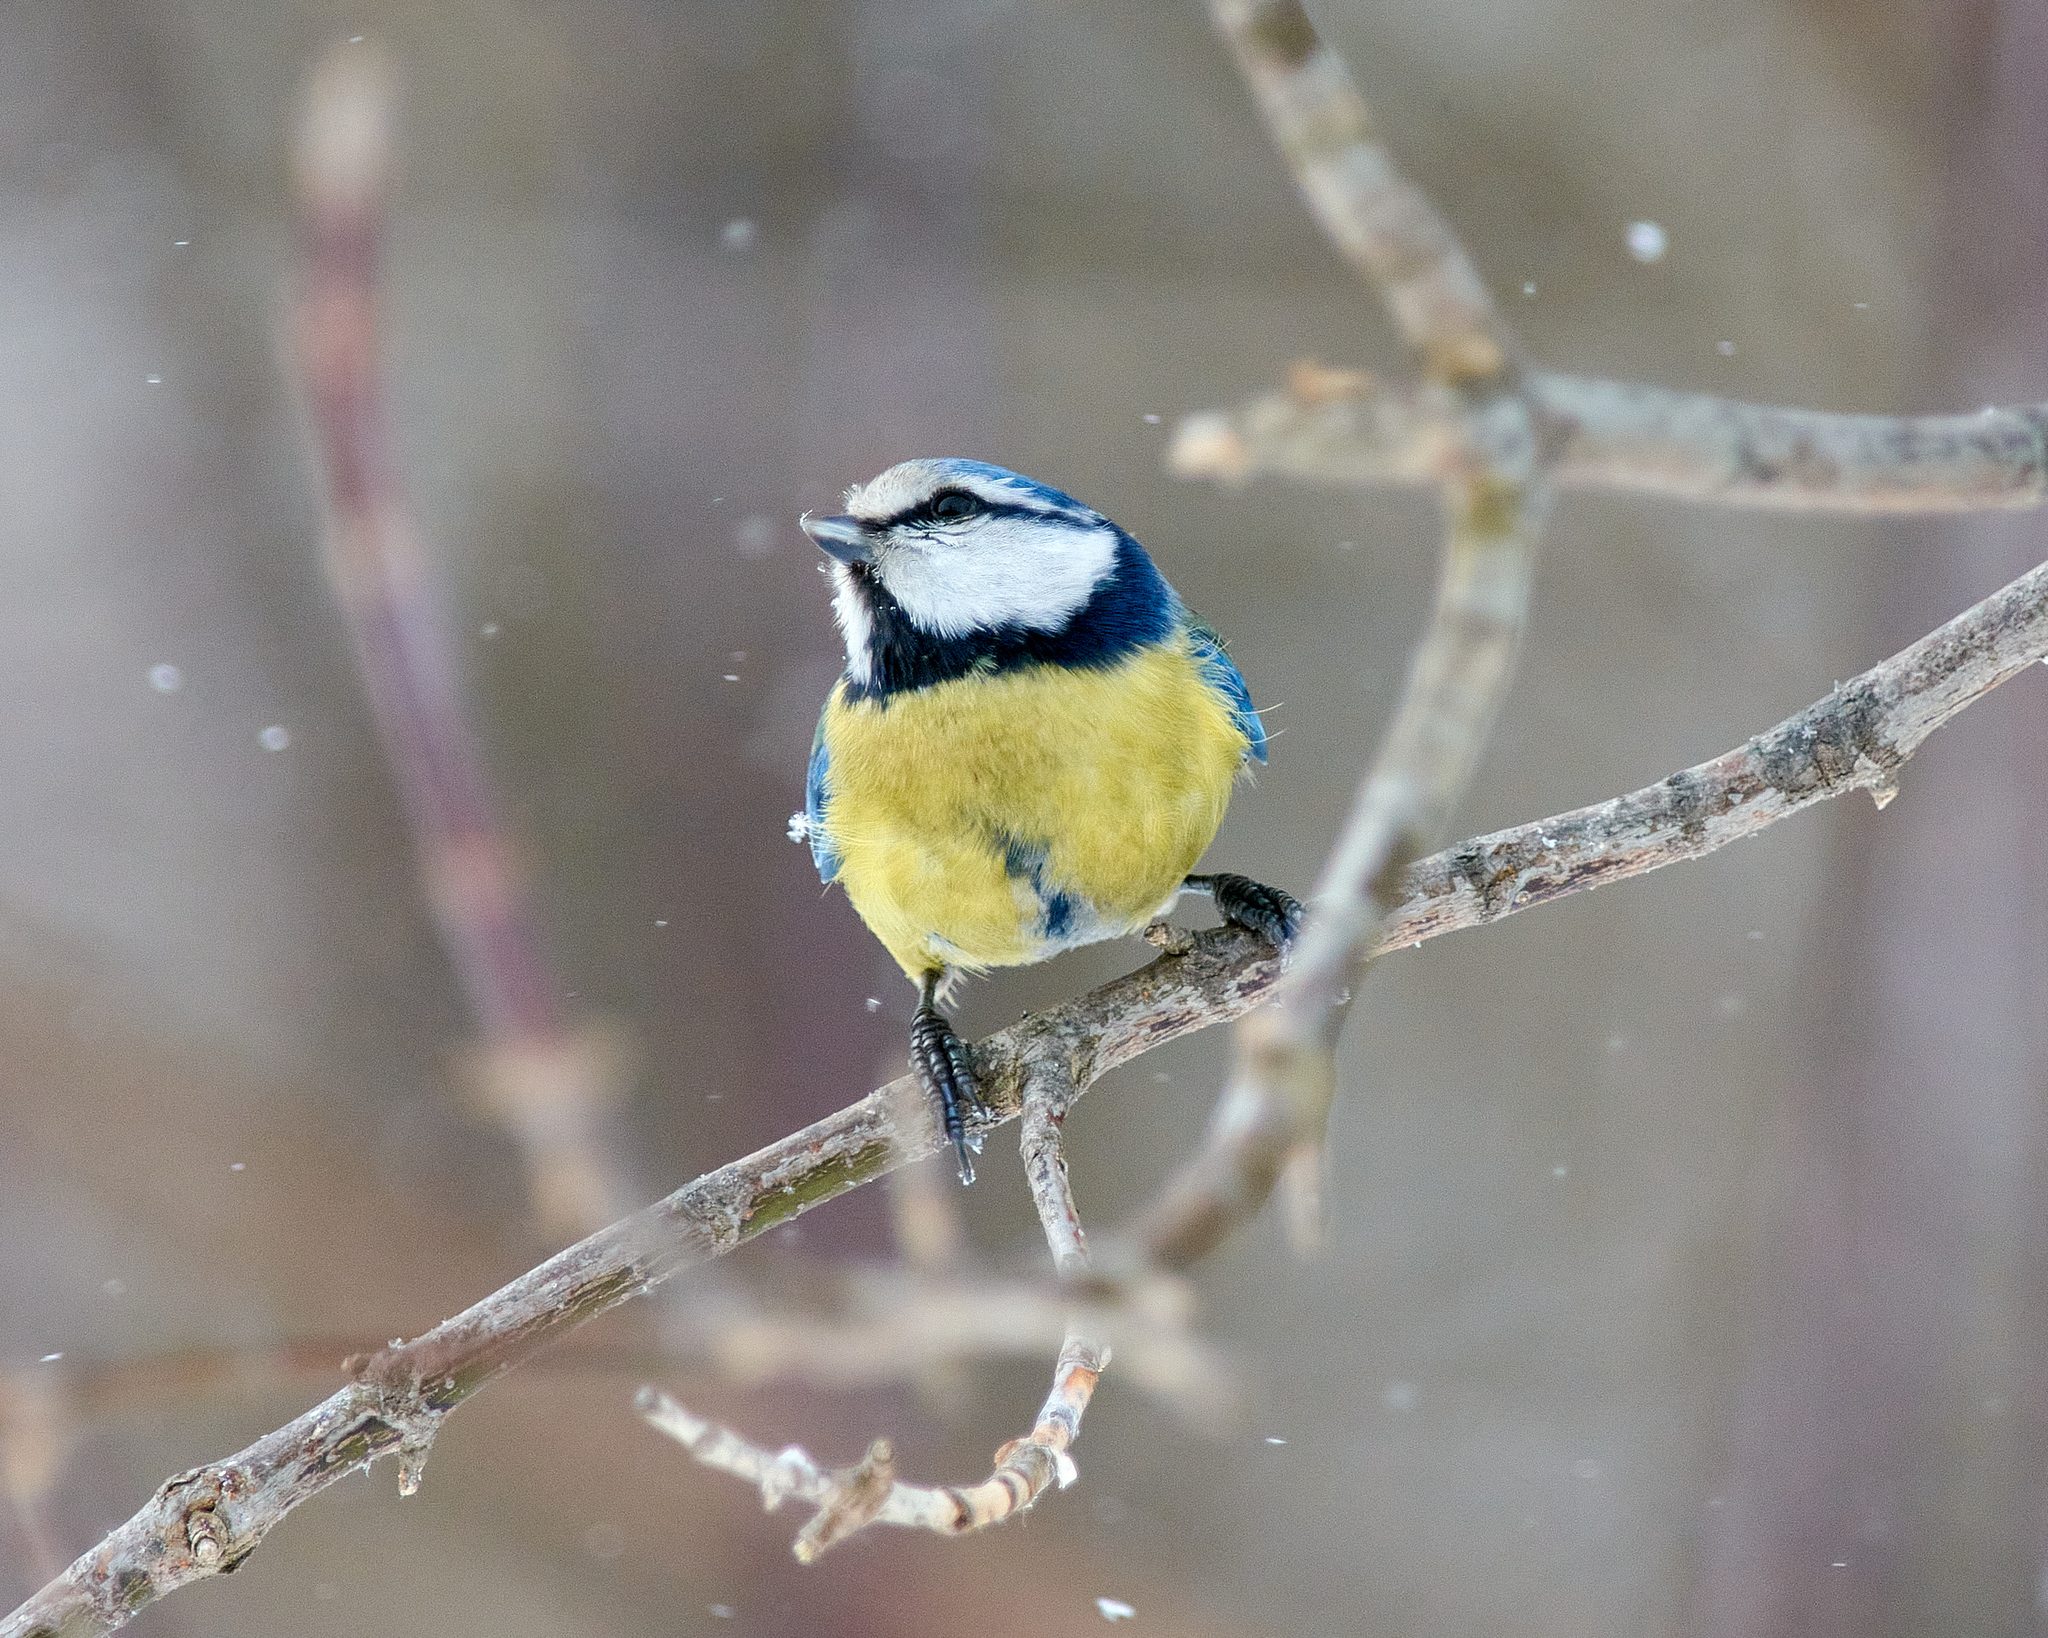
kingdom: Animalia
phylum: Chordata
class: Aves
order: Passeriformes
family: Paridae
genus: Cyanistes
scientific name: Cyanistes caeruleus
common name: Eurasian blue tit
